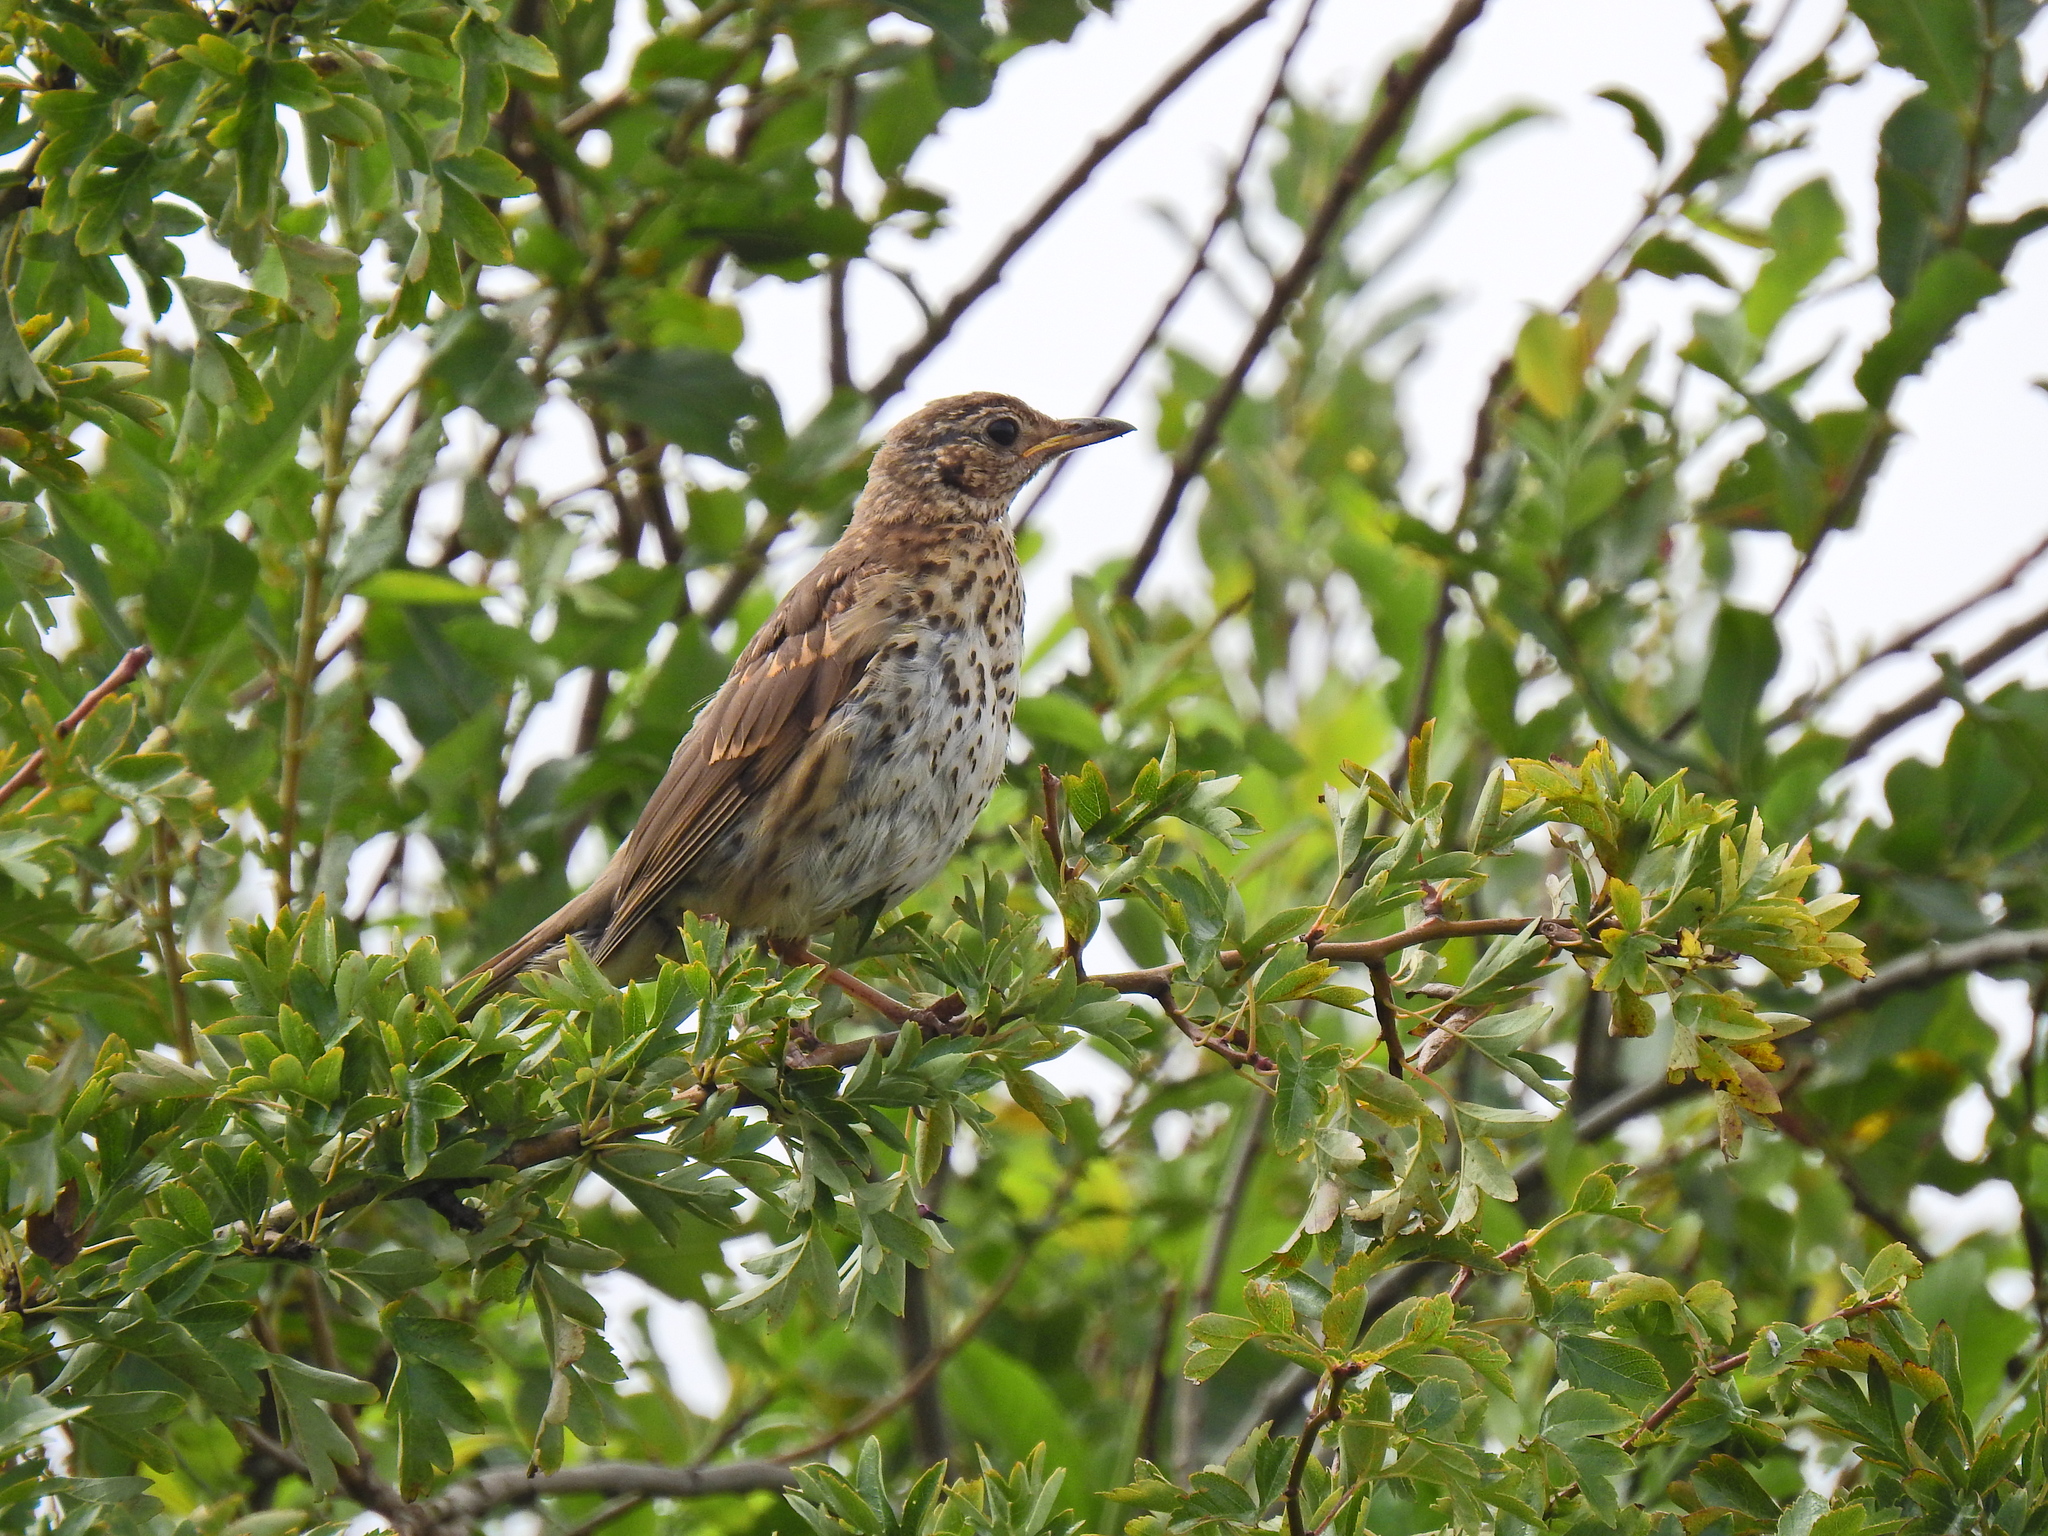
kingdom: Animalia
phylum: Chordata
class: Aves
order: Passeriformes
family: Turdidae
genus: Turdus
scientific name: Turdus philomelos
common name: Song thrush
